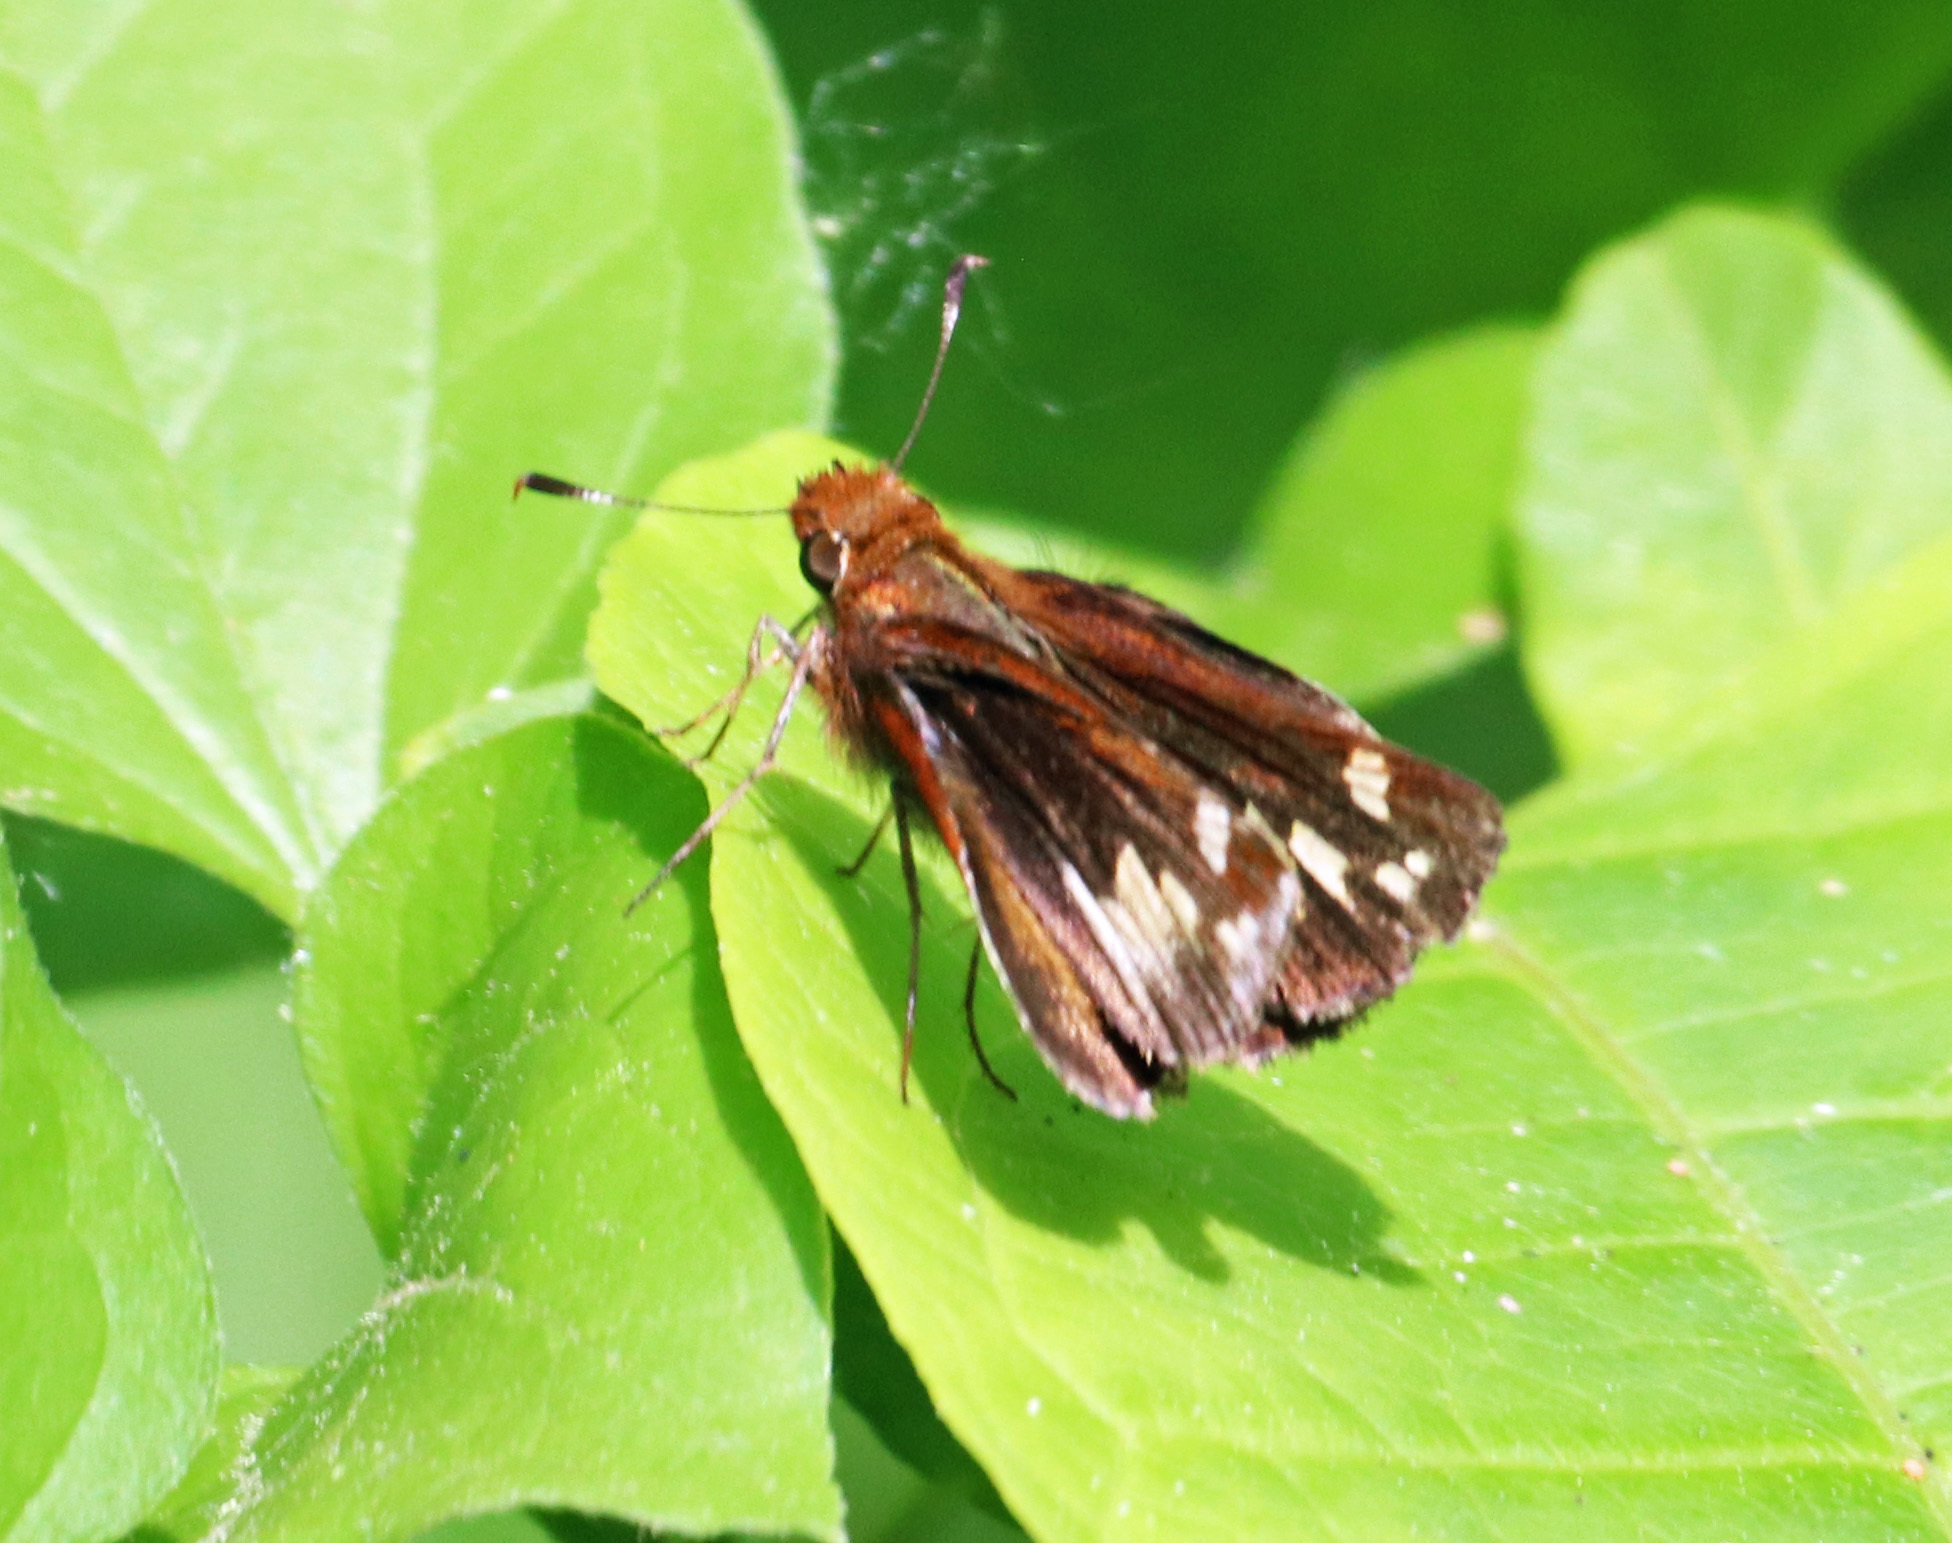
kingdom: Animalia
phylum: Arthropoda
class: Insecta
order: Lepidoptera
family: Hesperiidae
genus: Lon
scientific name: Lon zabulon
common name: Zabulon skipper
